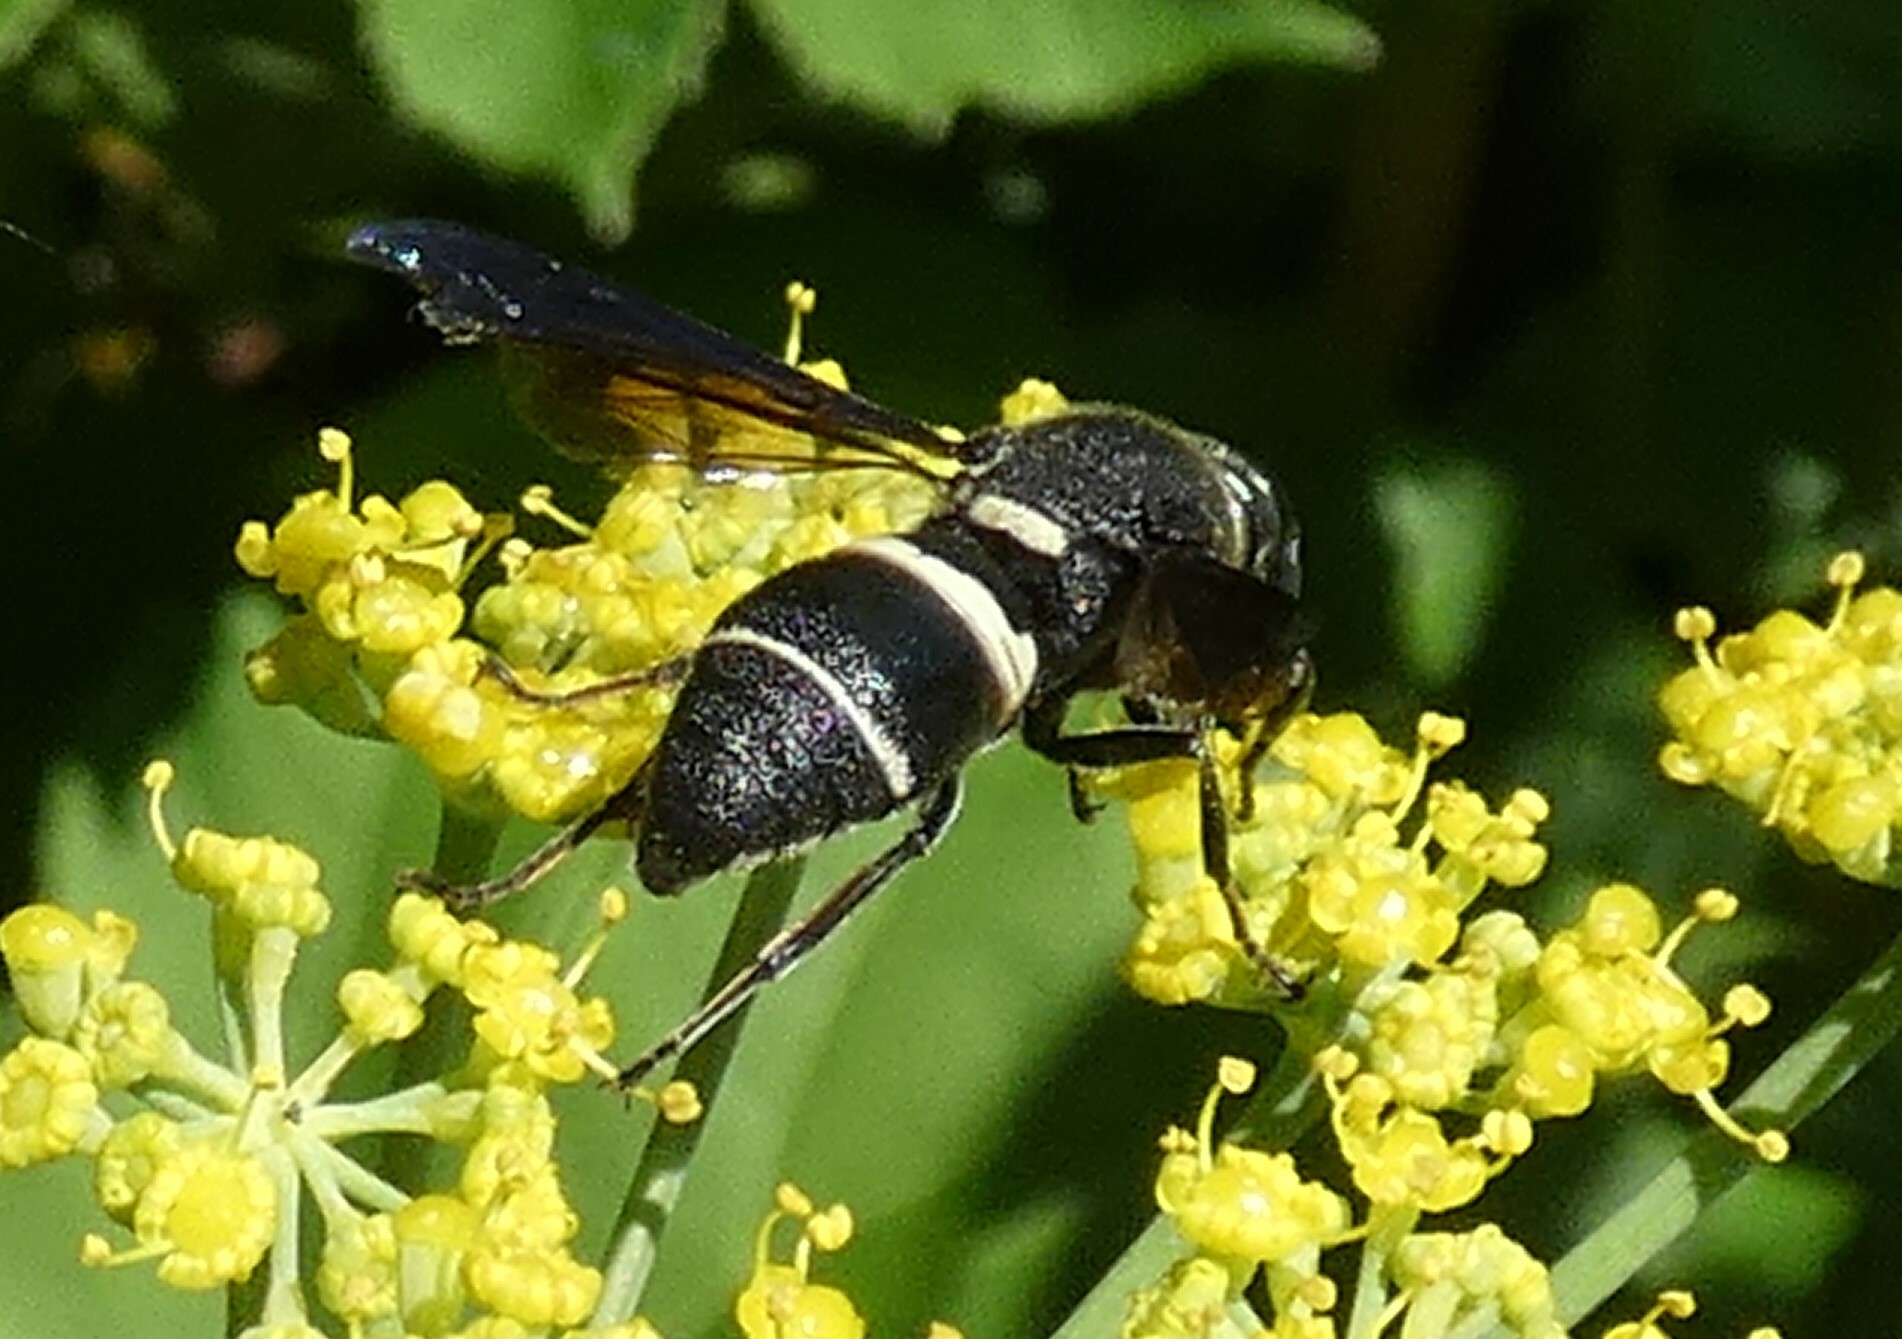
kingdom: Animalia
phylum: Arthropoda
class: Insecta
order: Hymenoptera
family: Eumenidae
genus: Euodynerus
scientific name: Euodynerus megaera
